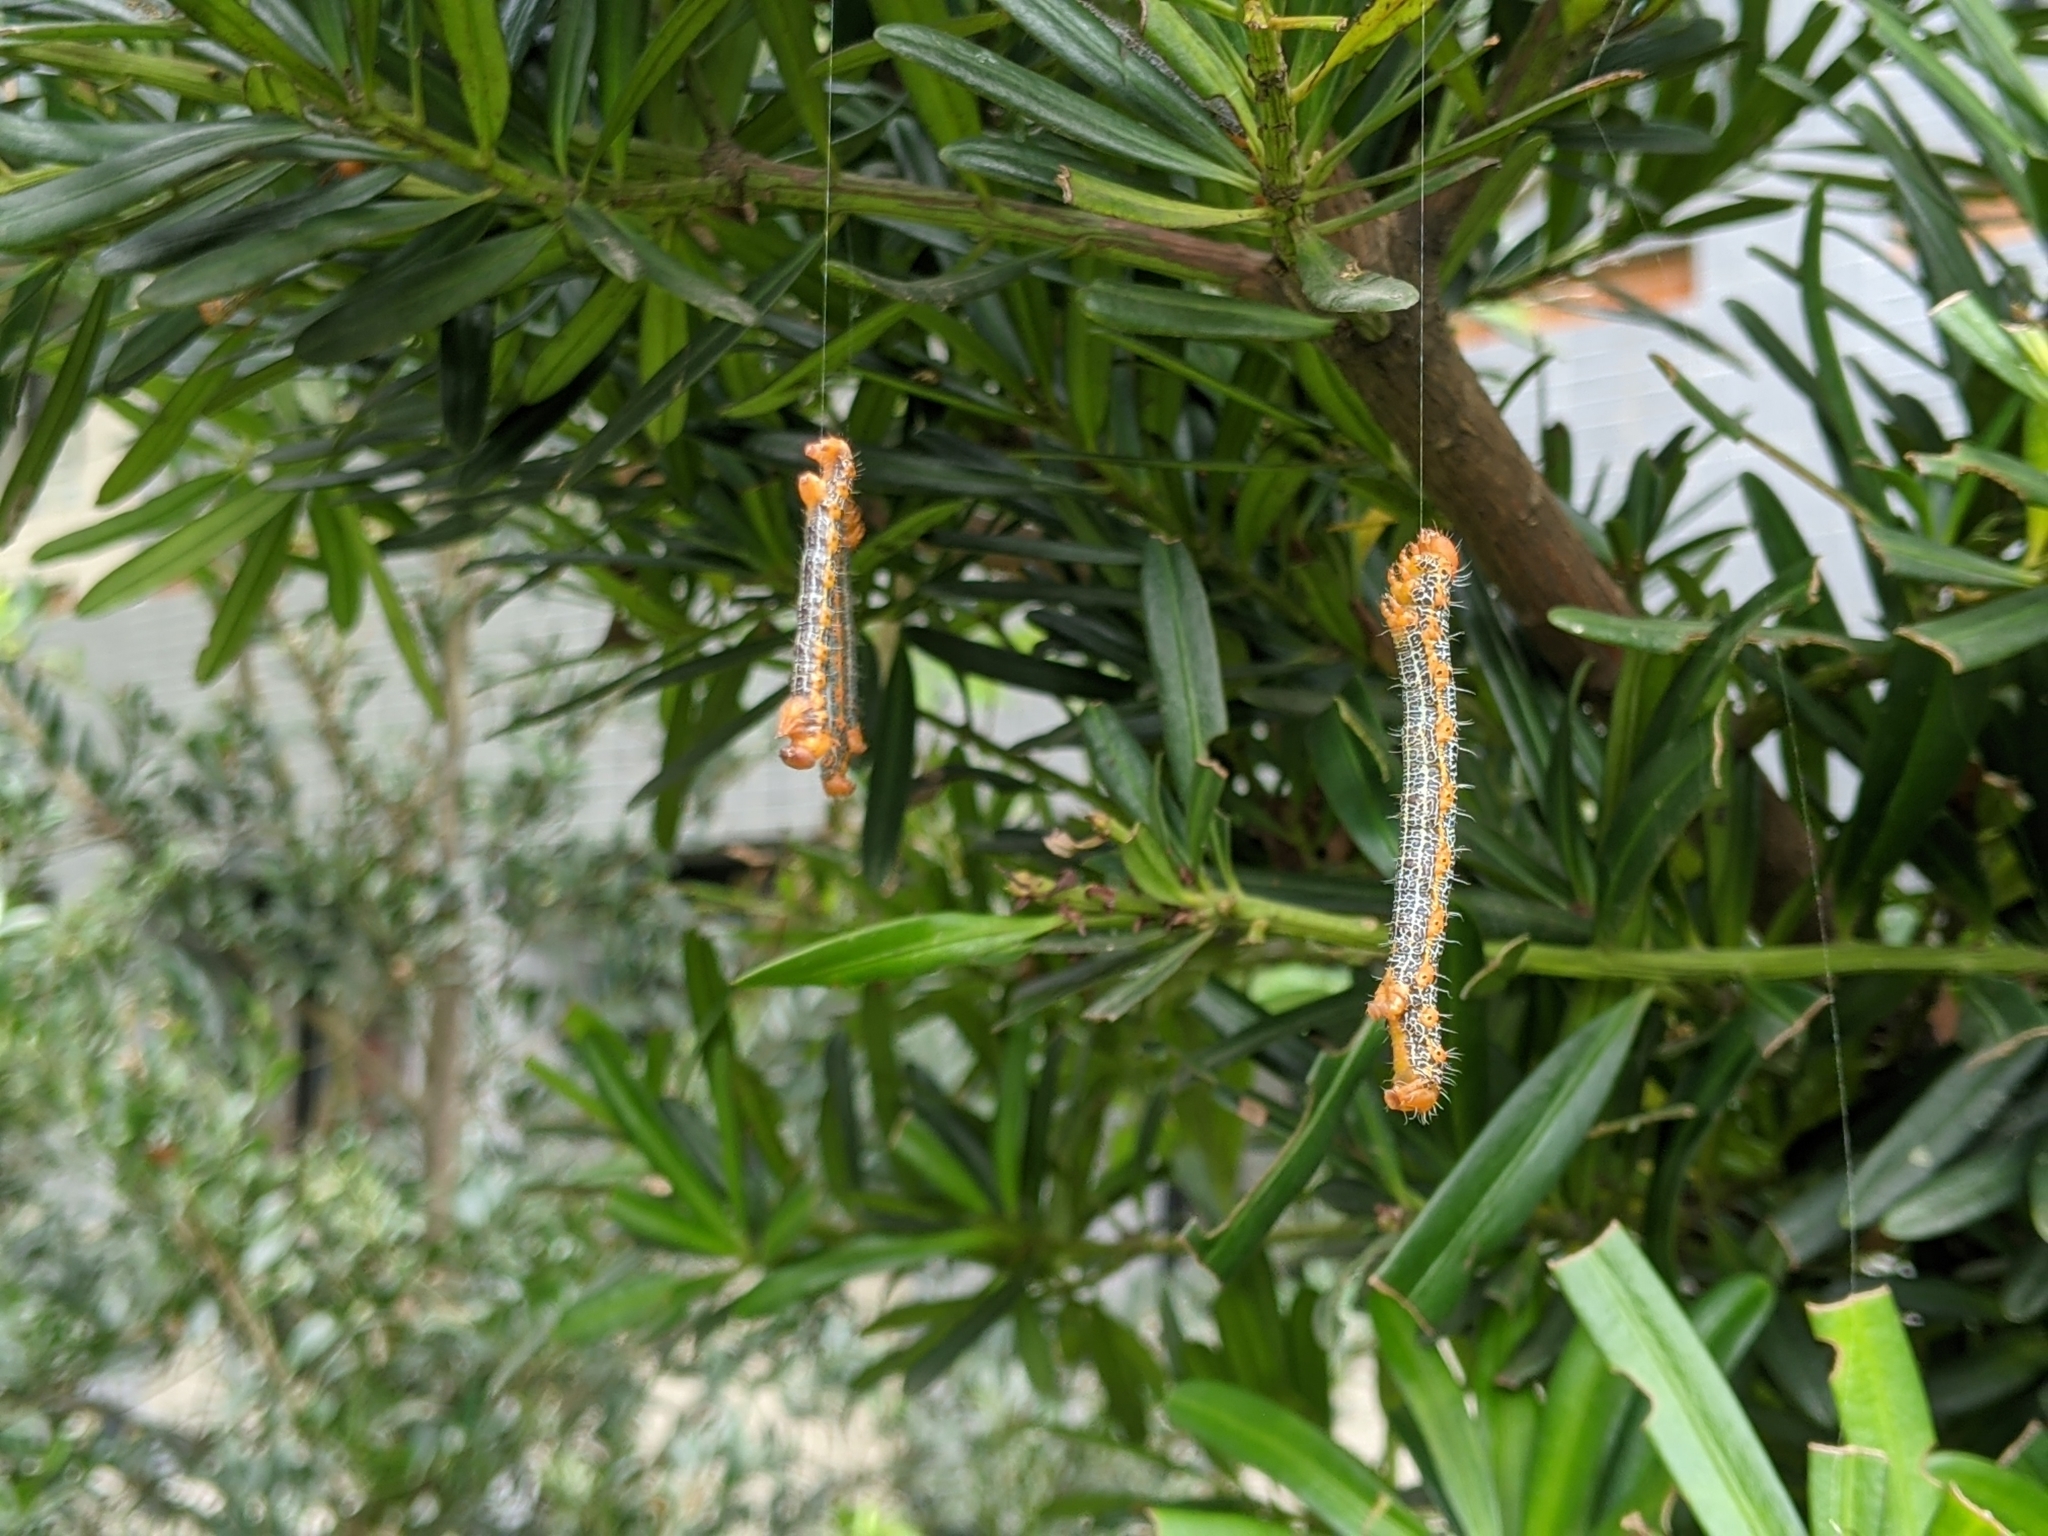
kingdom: Animalia
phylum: Arthropoda
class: Insecta
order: Lepidoptera
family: Geometridae
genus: Milionia
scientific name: Milionia basalis
